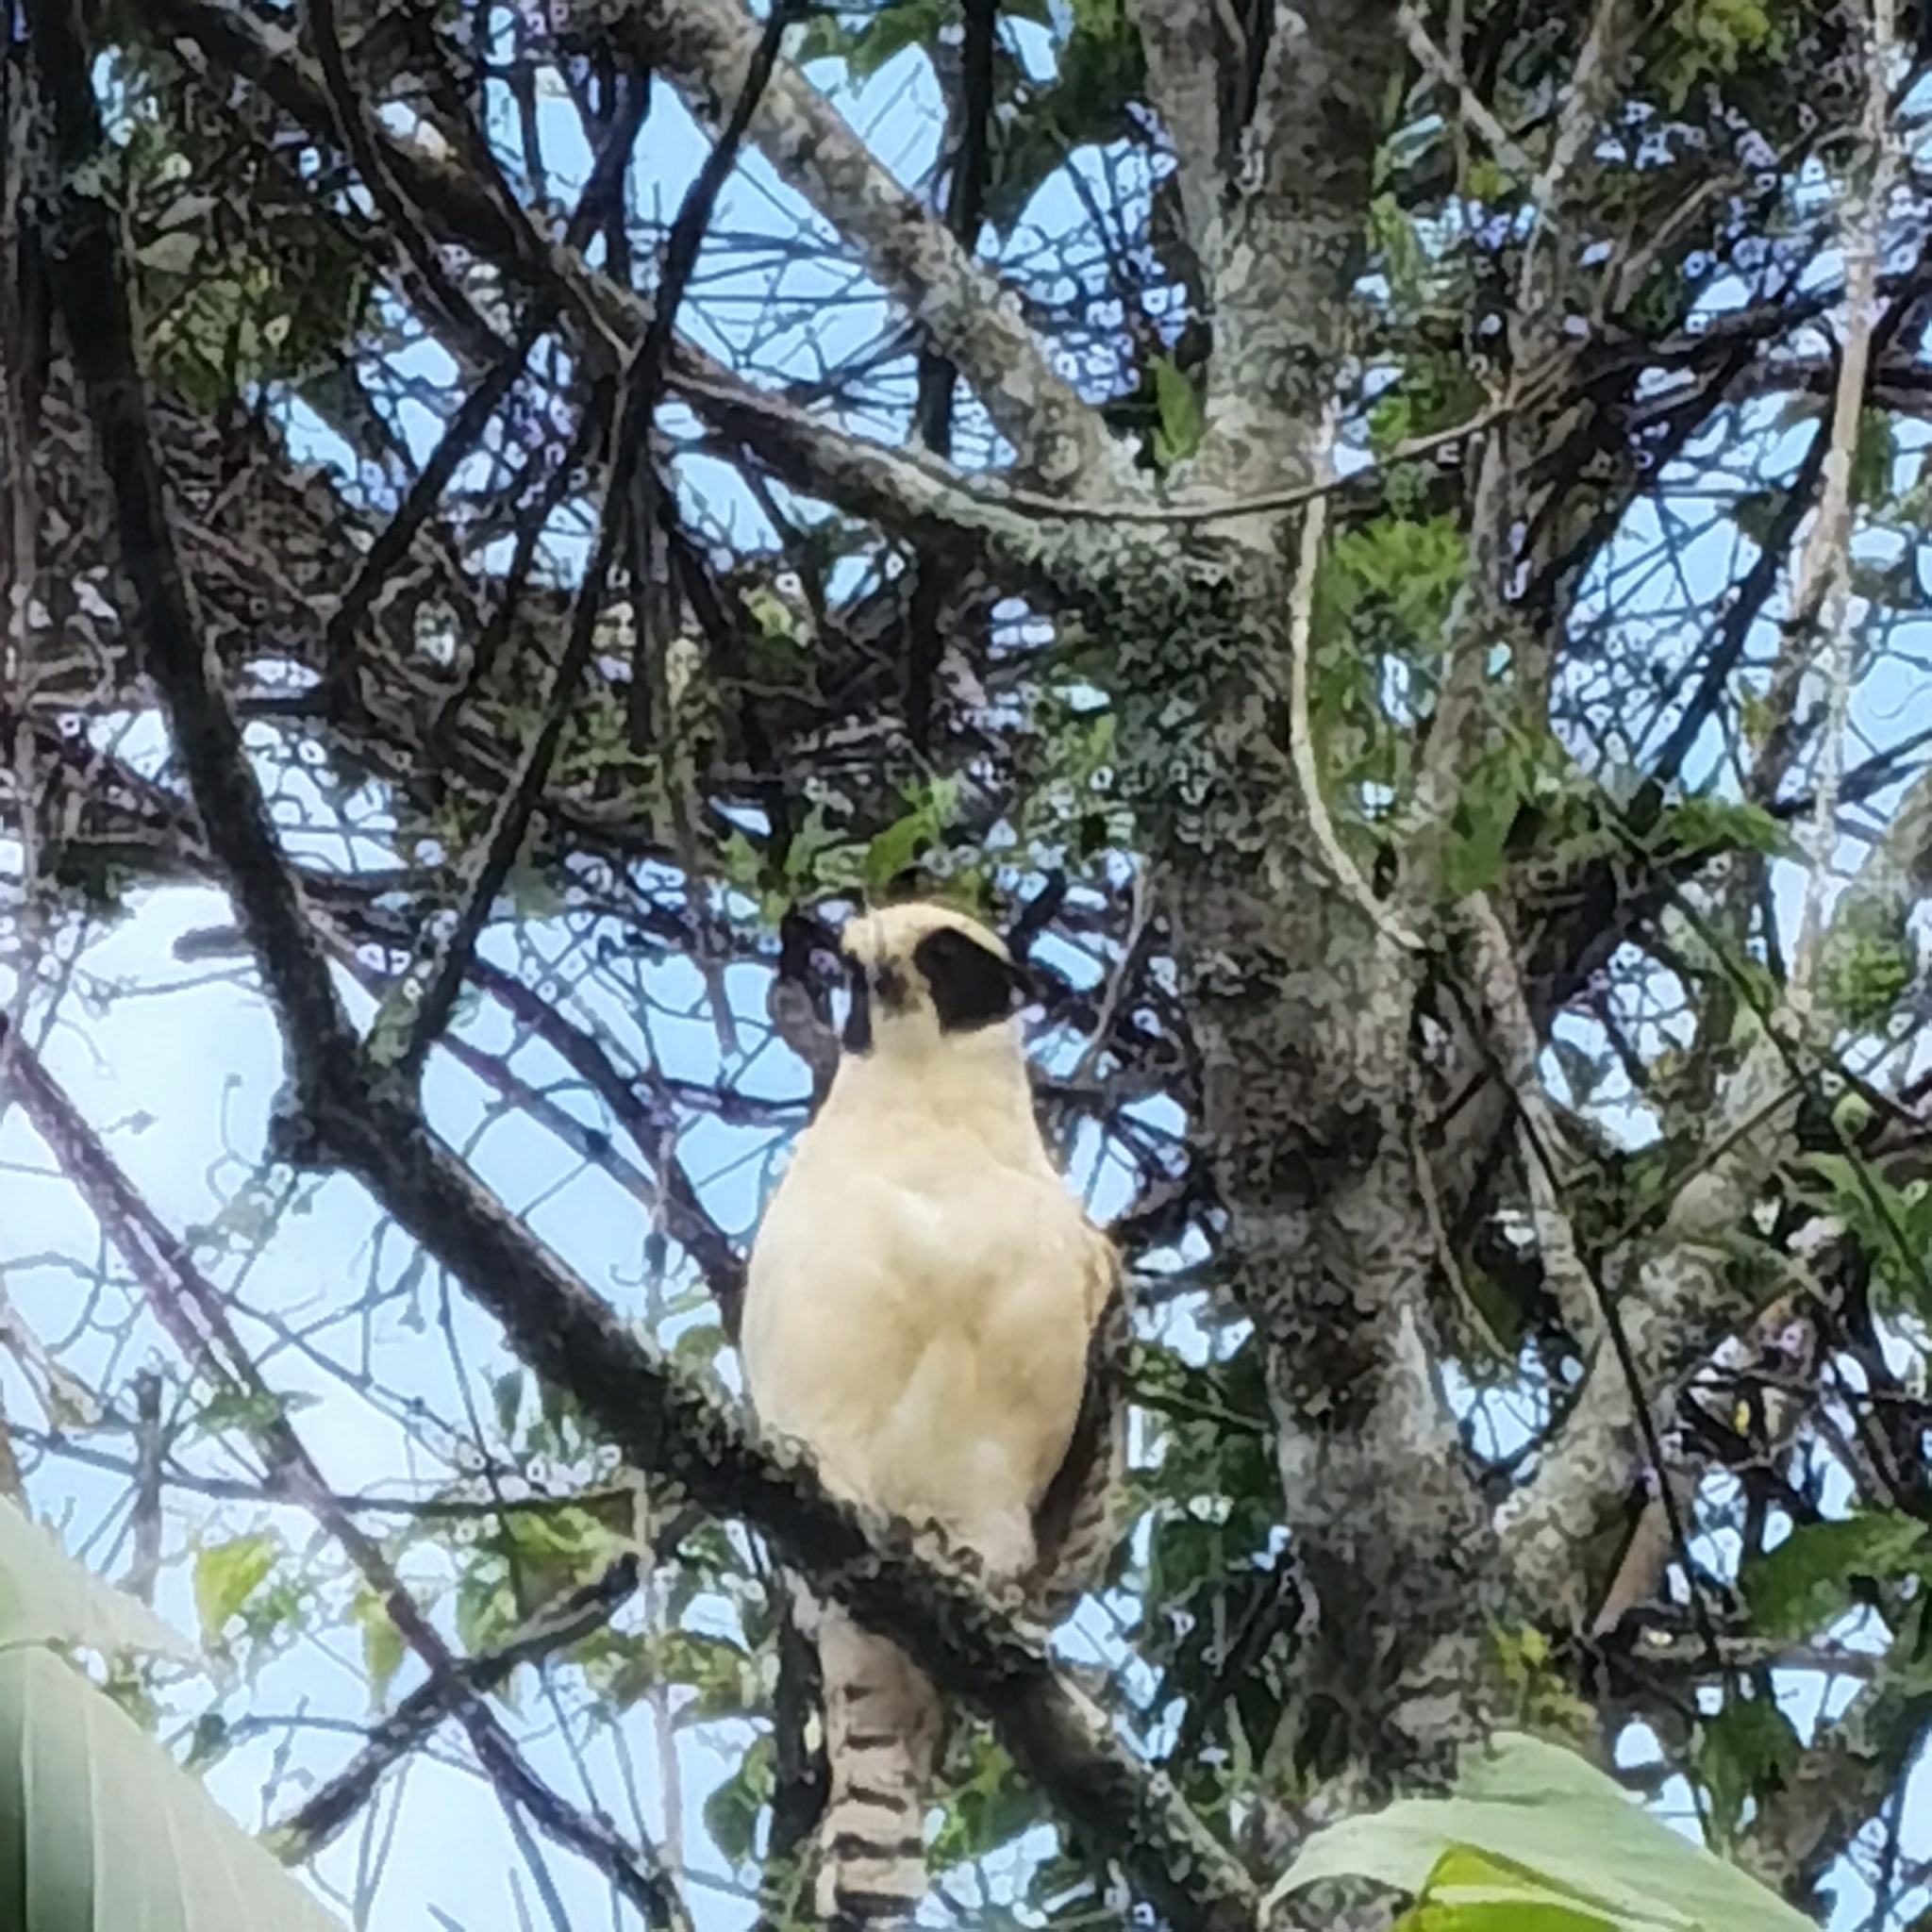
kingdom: Animalia
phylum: Chordata
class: Aves
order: Falconiformes
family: Falconidae
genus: Herpetotheres
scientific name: Herpetotheres cachinnans
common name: Laughing falcon
